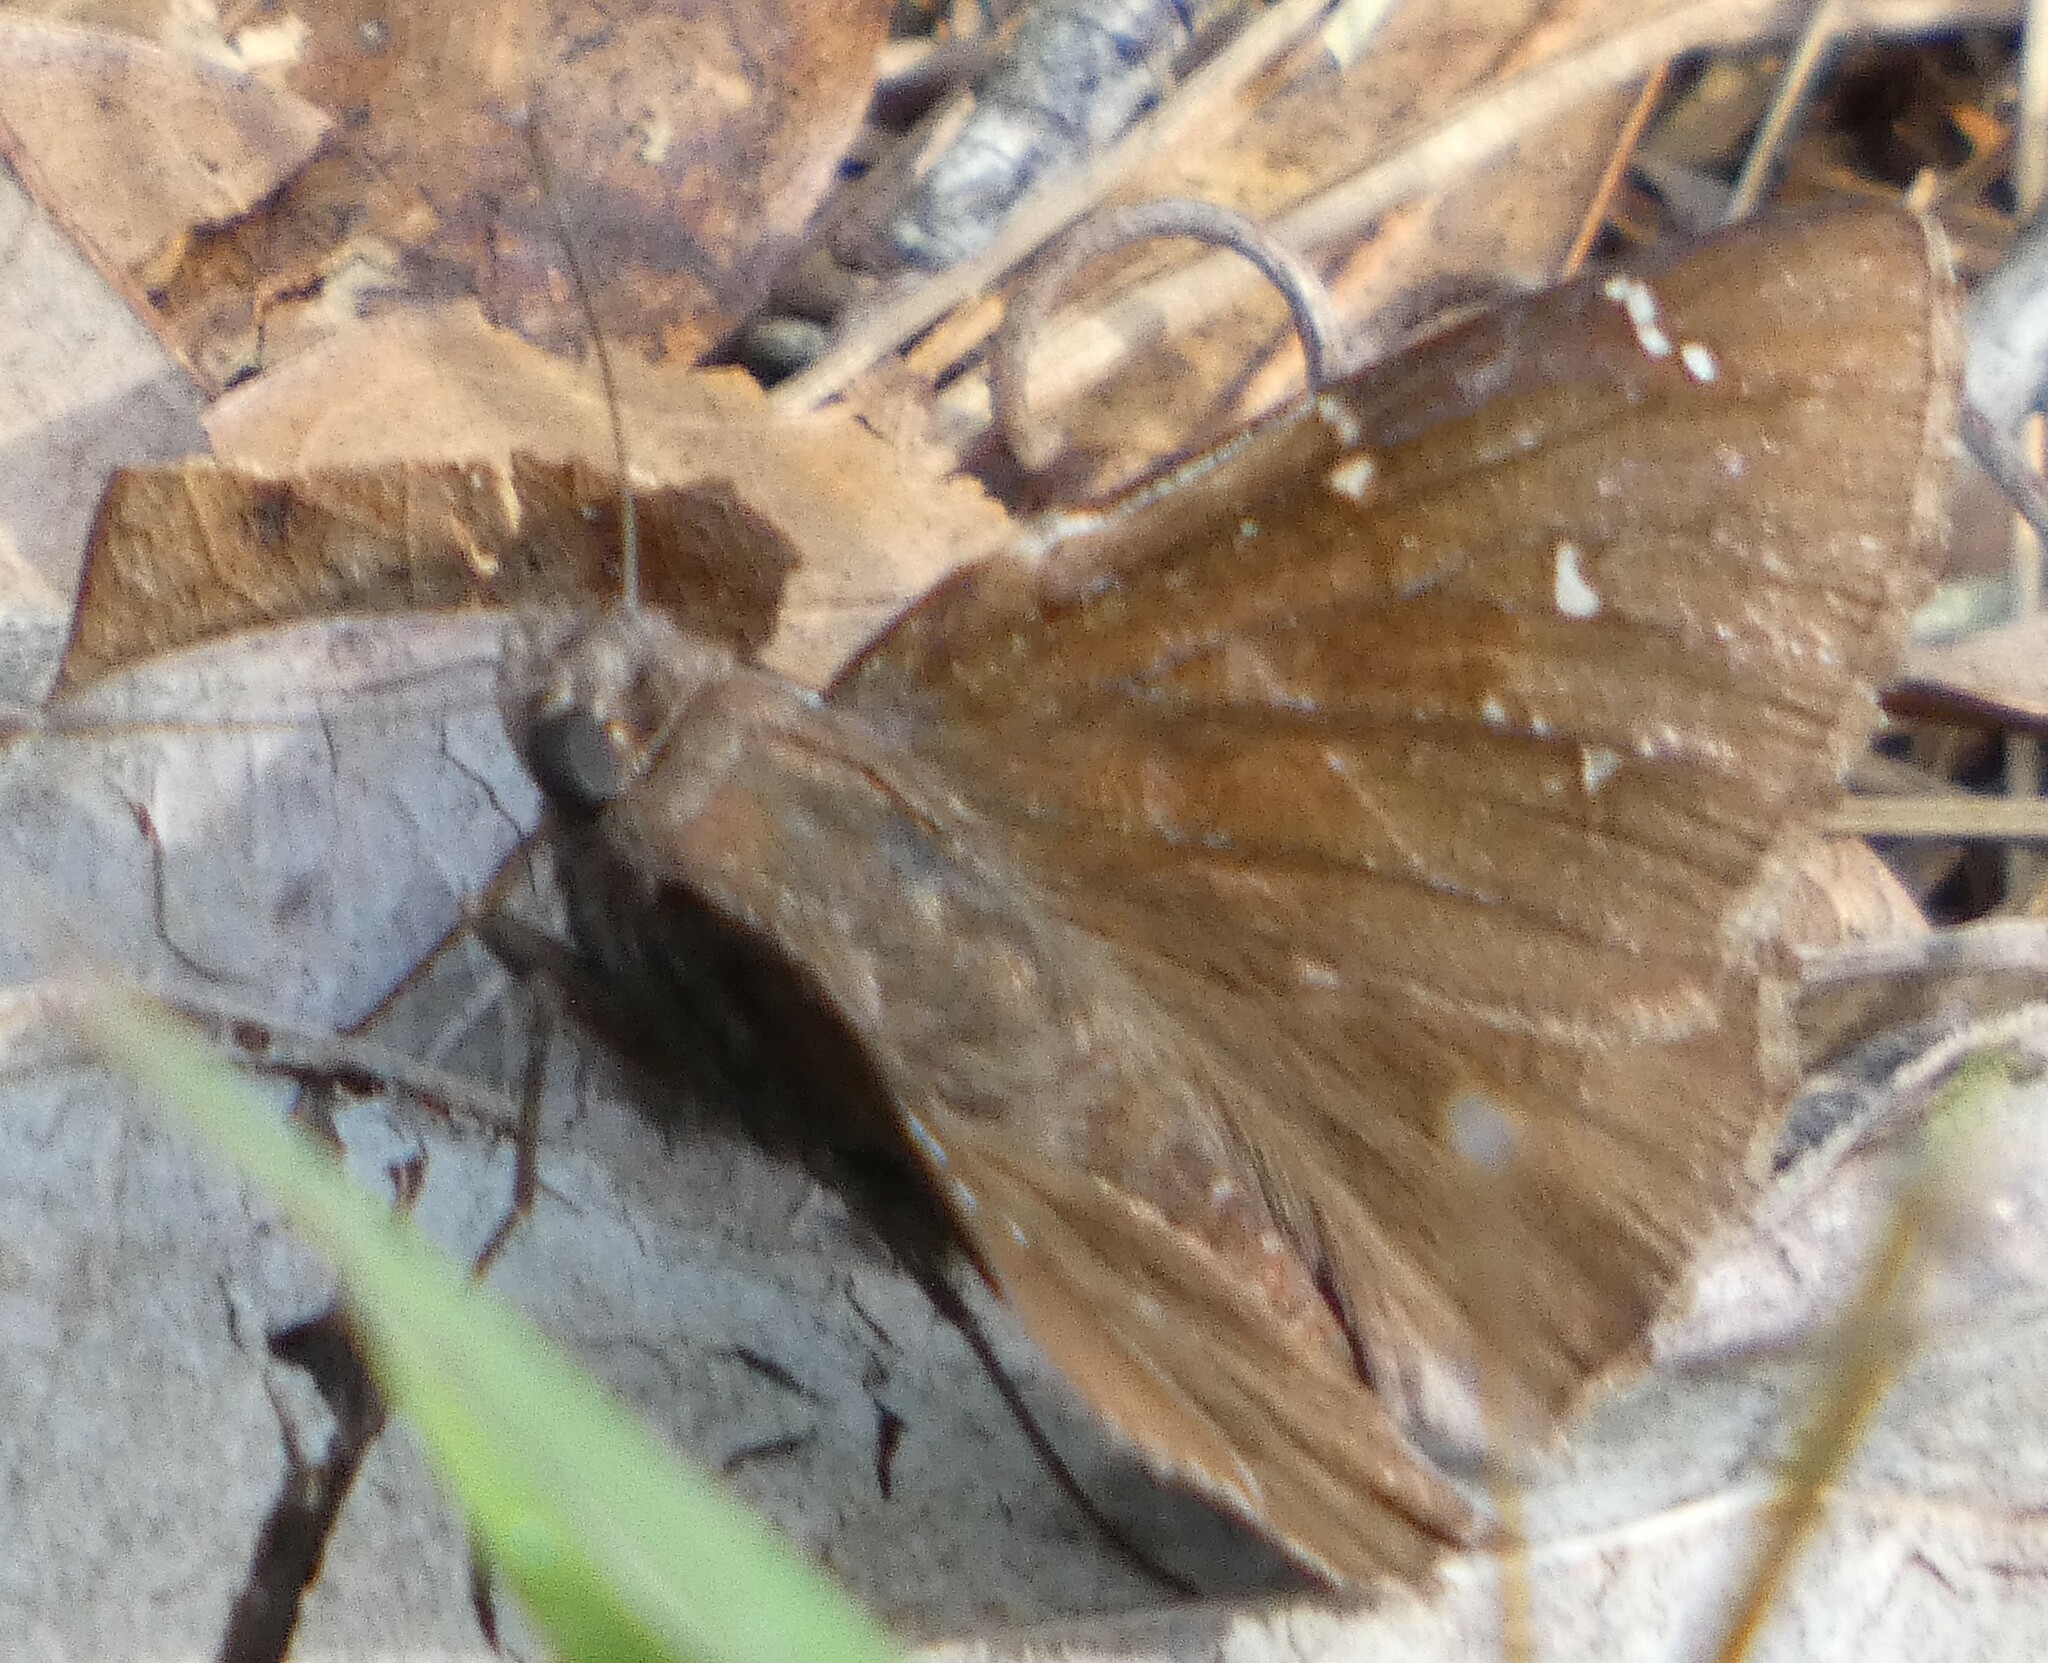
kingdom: Animalia
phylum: Arthropoda
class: Insecta
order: Lepidoptera
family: Hesperiidae
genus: Thorybes
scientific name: Thorybes pylades
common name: Northern cloudywing
